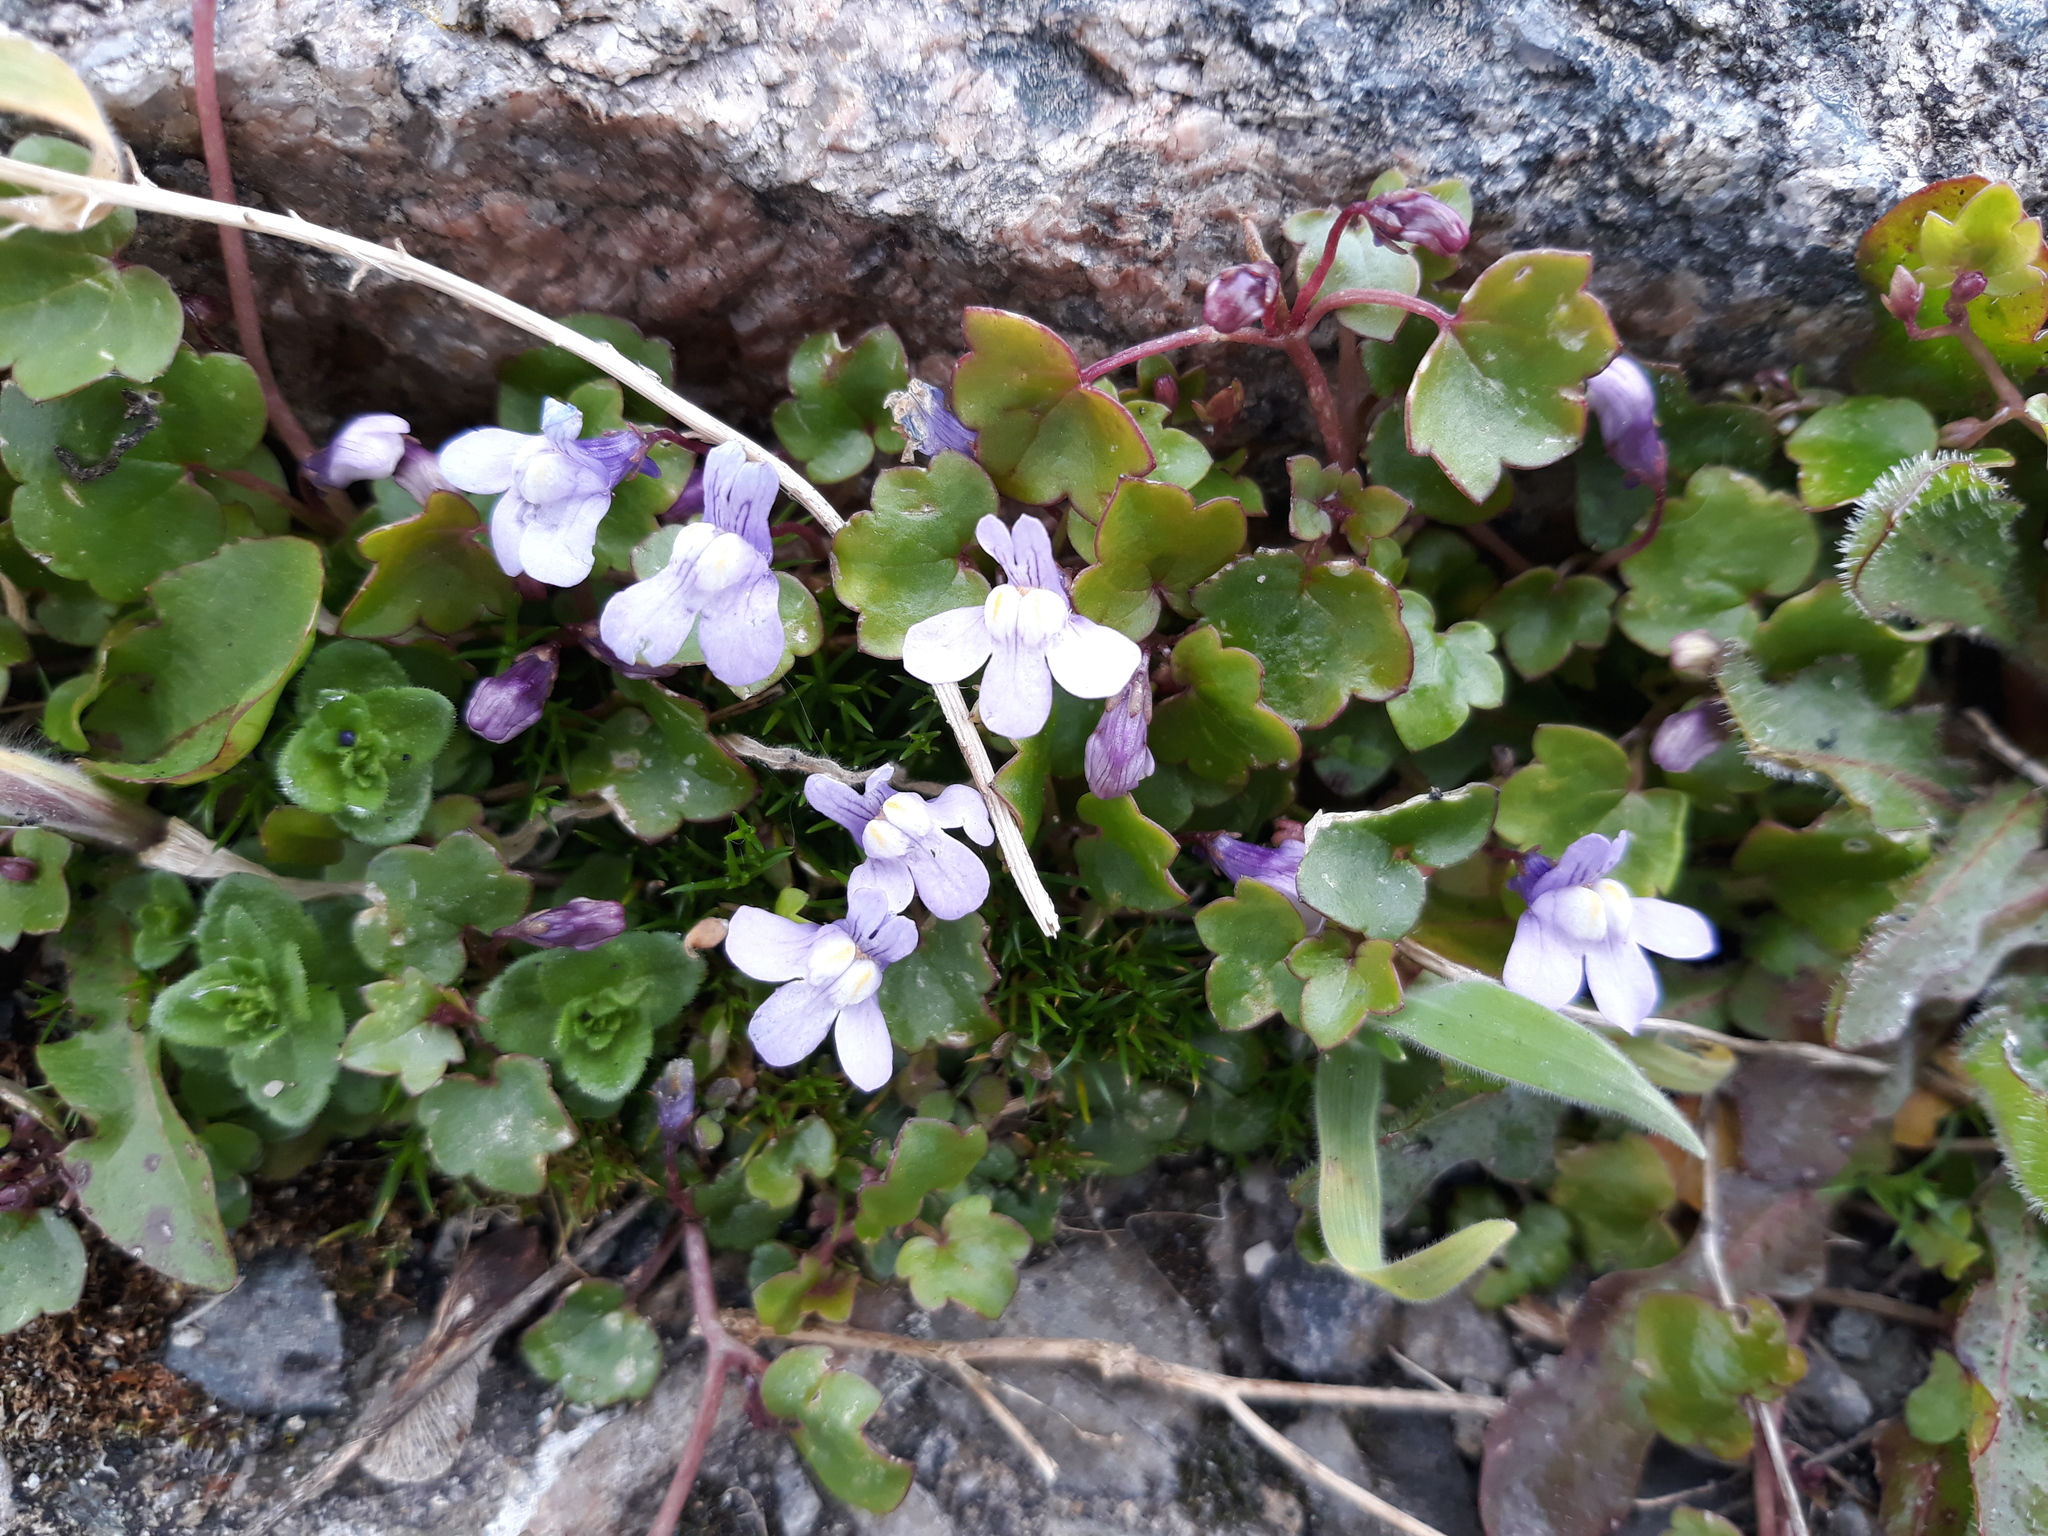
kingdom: Plantae
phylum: Tracheophyta
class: Magnoliopsida
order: Lamiales
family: Plantaginaceae
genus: Cymbalaria
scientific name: Cymbalaria muralis
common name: Ivy-leaved toadflax
